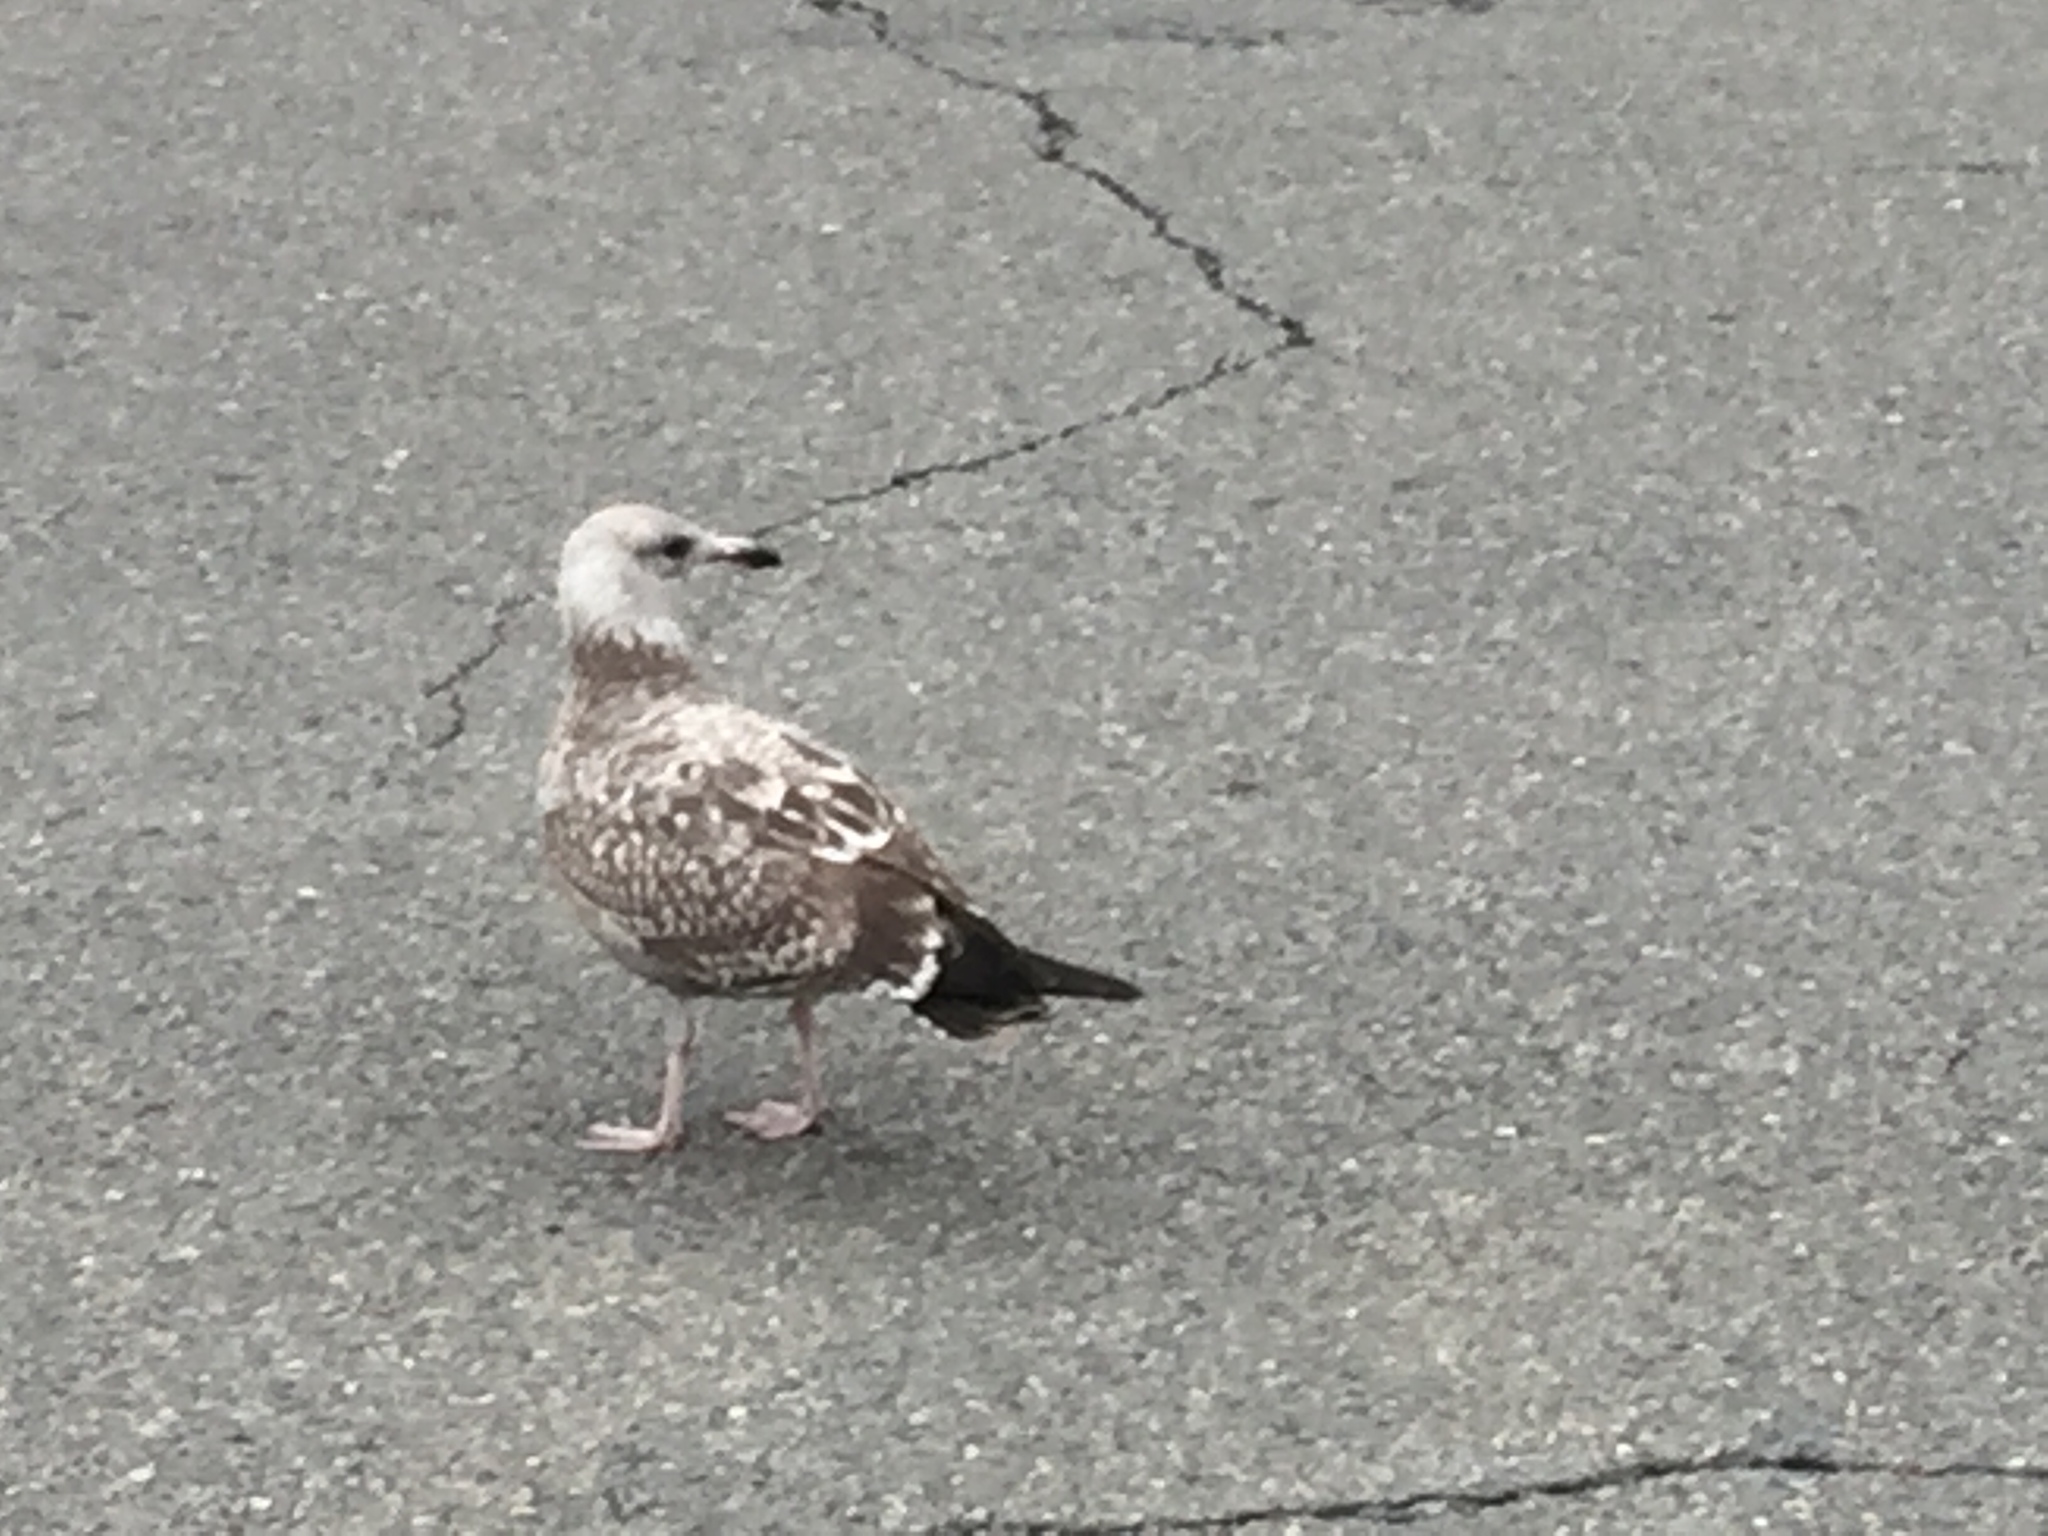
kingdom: Animalia
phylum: Chordata
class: Aves
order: Charadriiformes
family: Laridae
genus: Larus
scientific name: Larus argentatus
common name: Herring gull
